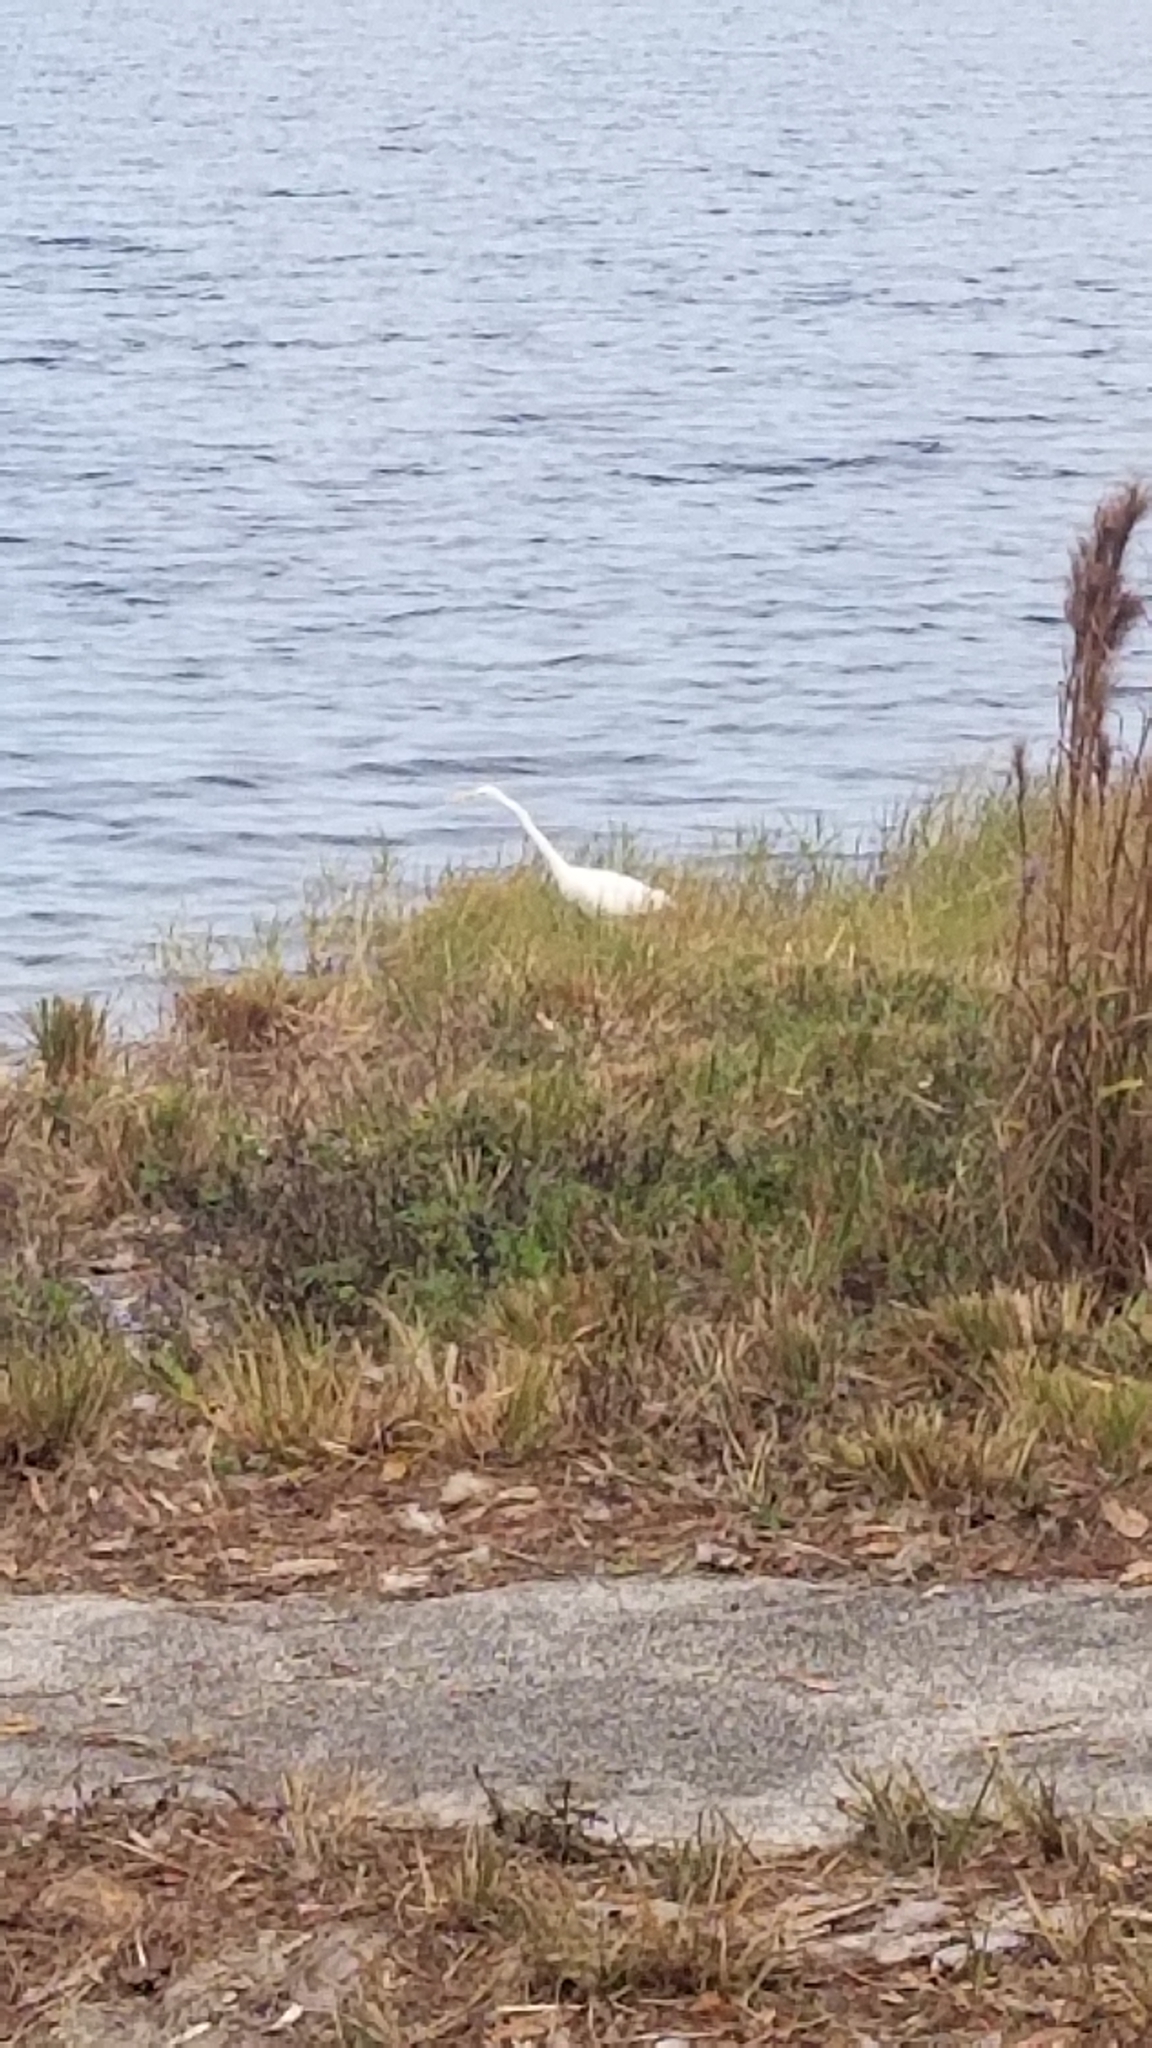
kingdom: Animalia
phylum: Chordata
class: Aves
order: Pelecaniformes
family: Ardeidae
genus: Ardea
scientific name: Ardea alba
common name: Great egret
